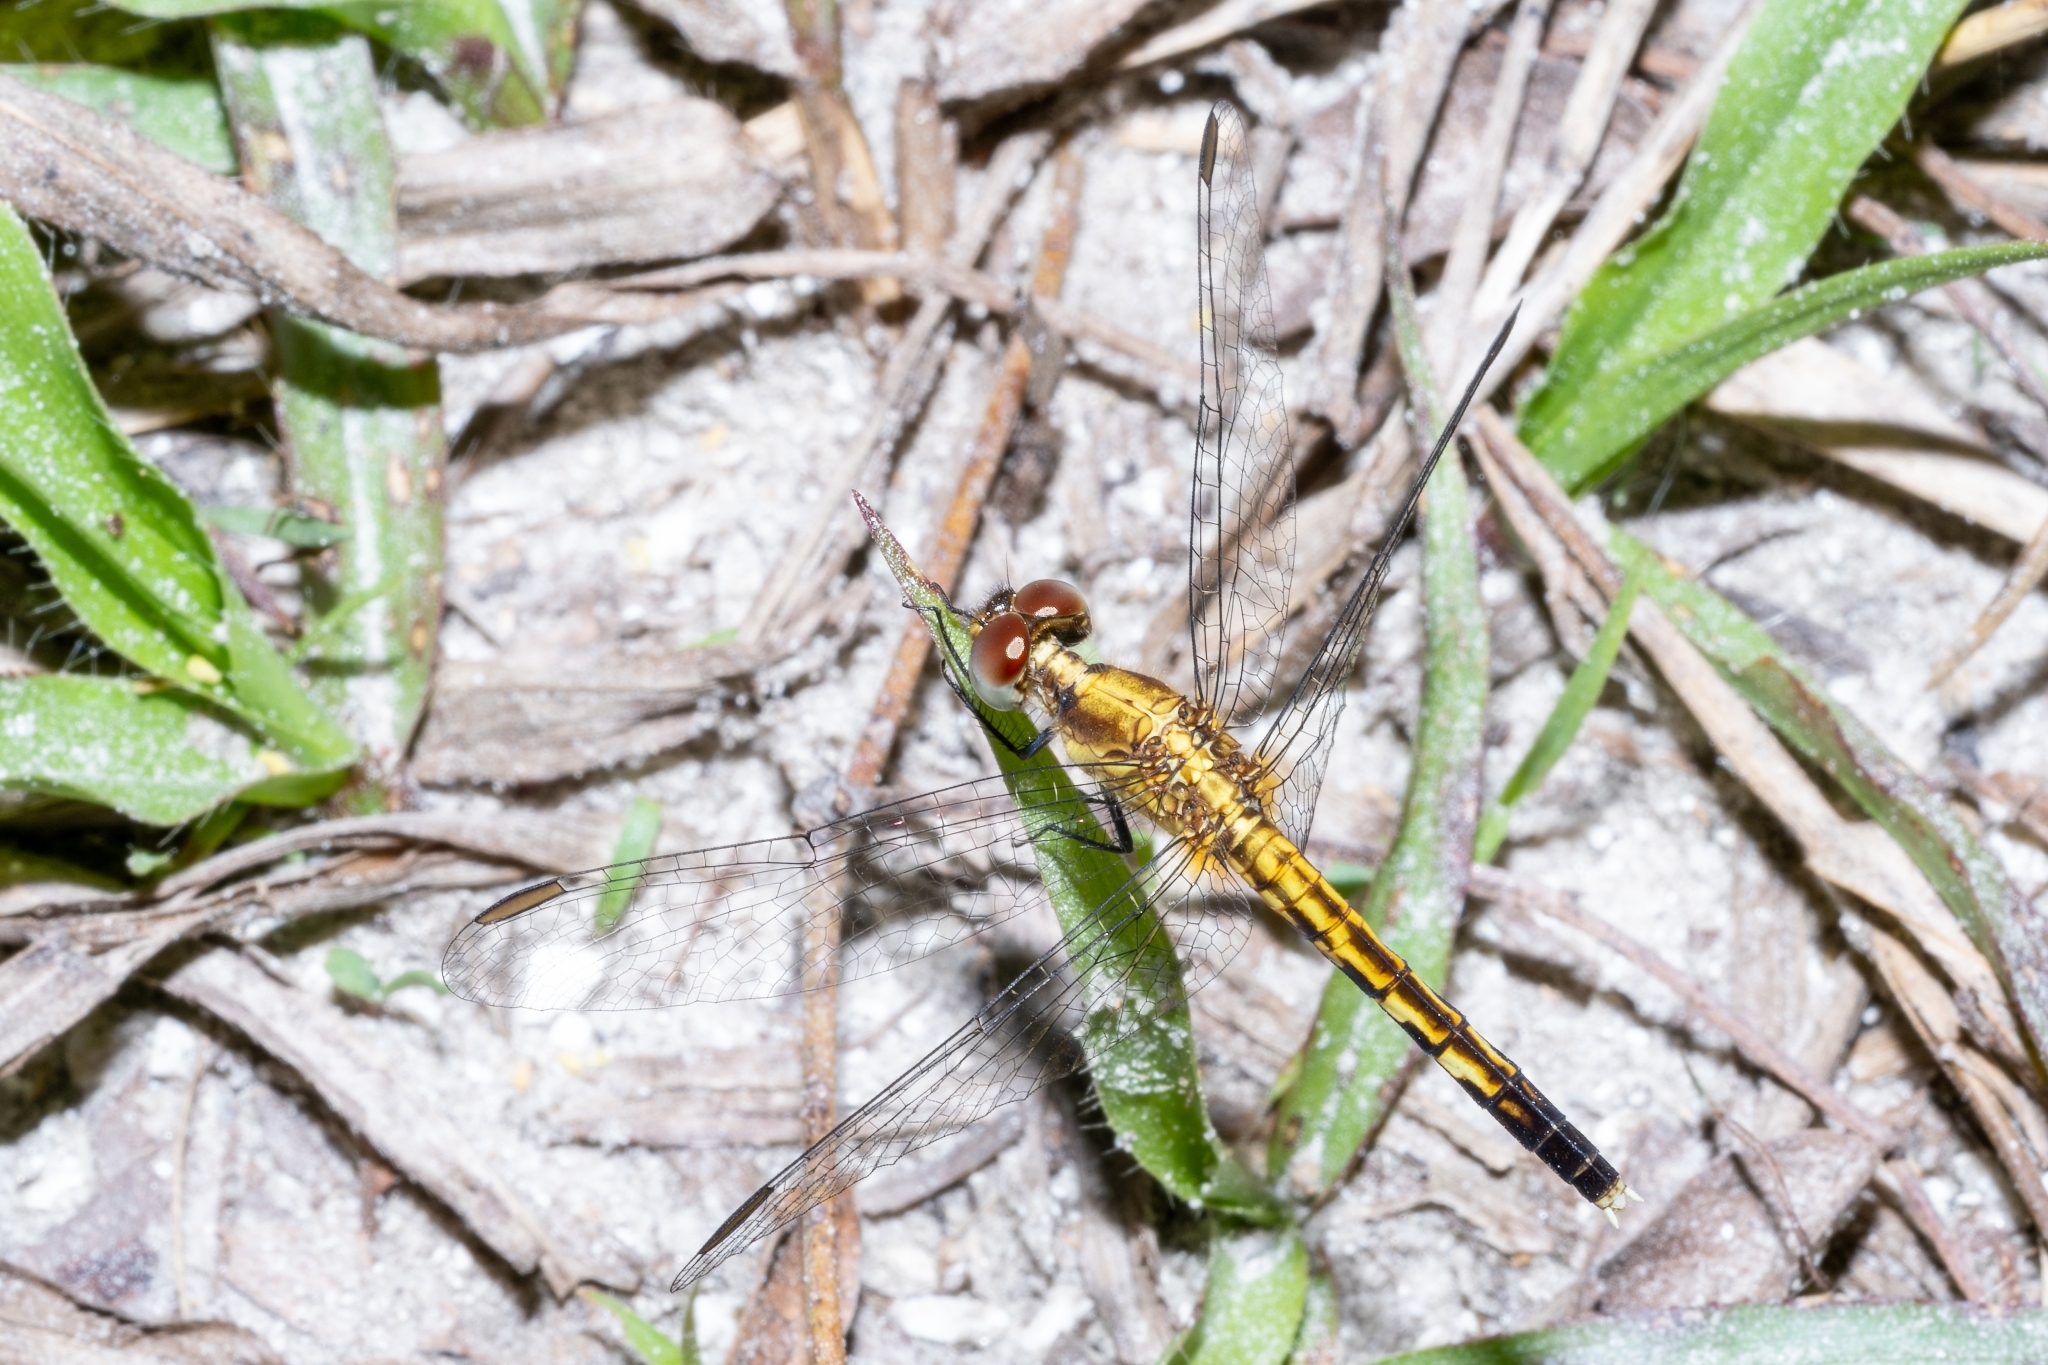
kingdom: Animalia
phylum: Arthropoda
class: Insecta
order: Odonata
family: Libellulidae
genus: Erythrodiplax
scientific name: Erythrodiplax minuscula
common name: Little blue dragonlet
